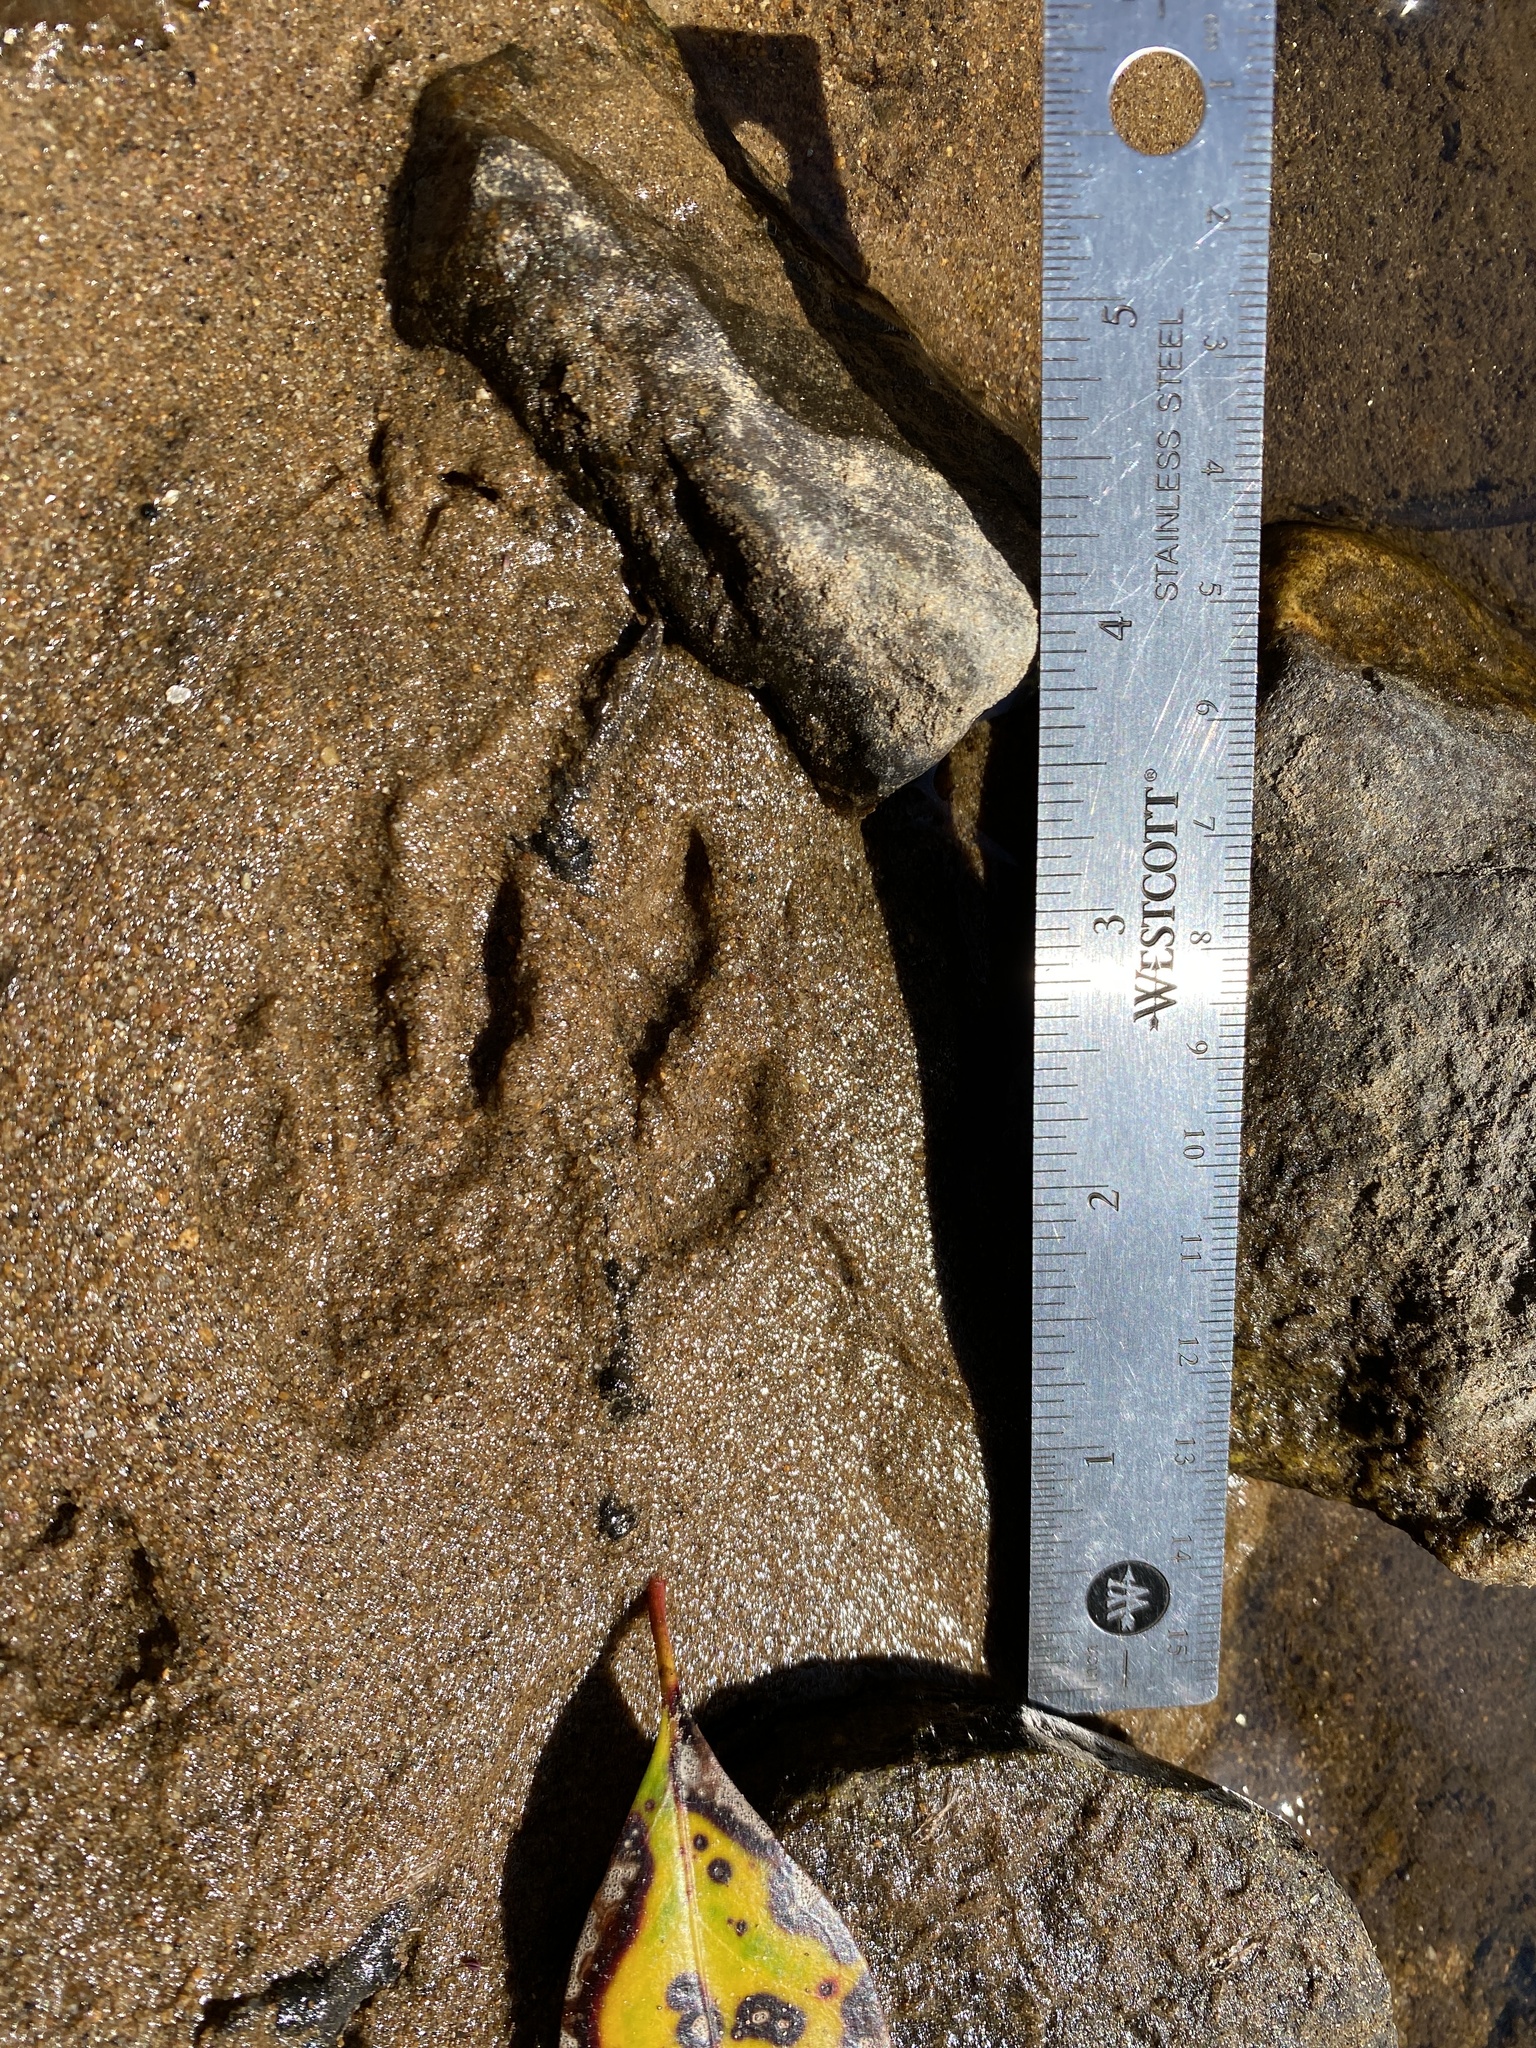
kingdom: Animalia
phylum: Chordata
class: Mammalia
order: Carnivora
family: Procyonidae
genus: Procyon
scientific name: Procyon lotor
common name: Raccoon
